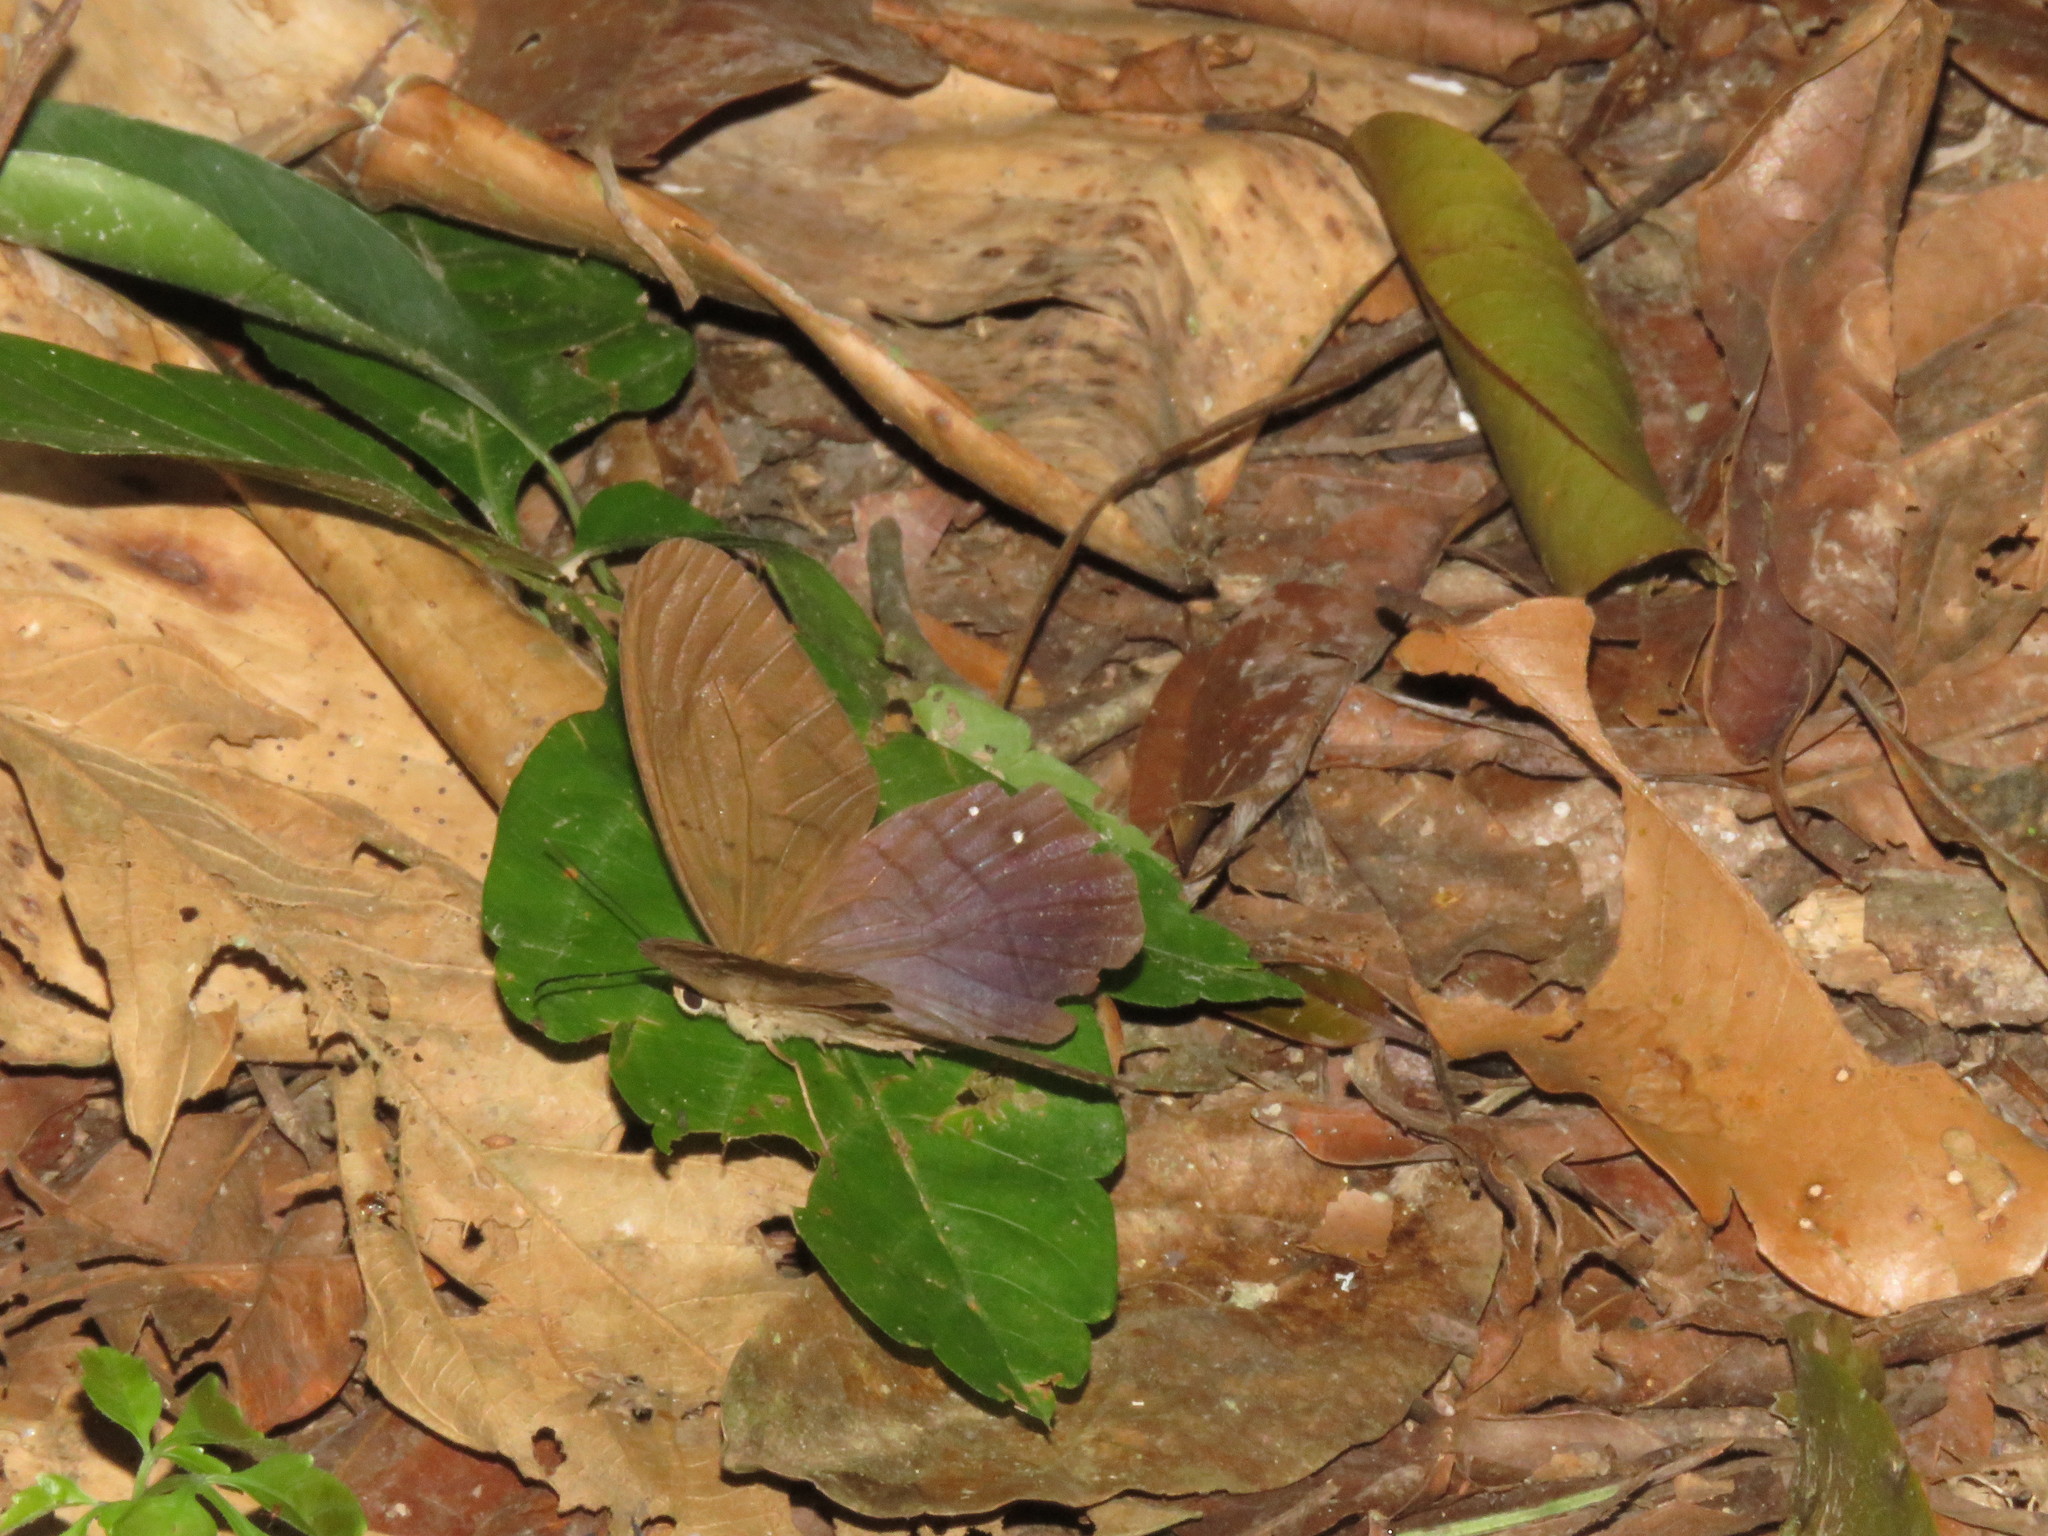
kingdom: Animalia
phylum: Arthropoda
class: Insecta
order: Lepidoptera
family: Nymphalidae
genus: Pierella
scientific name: Pierella rhea
